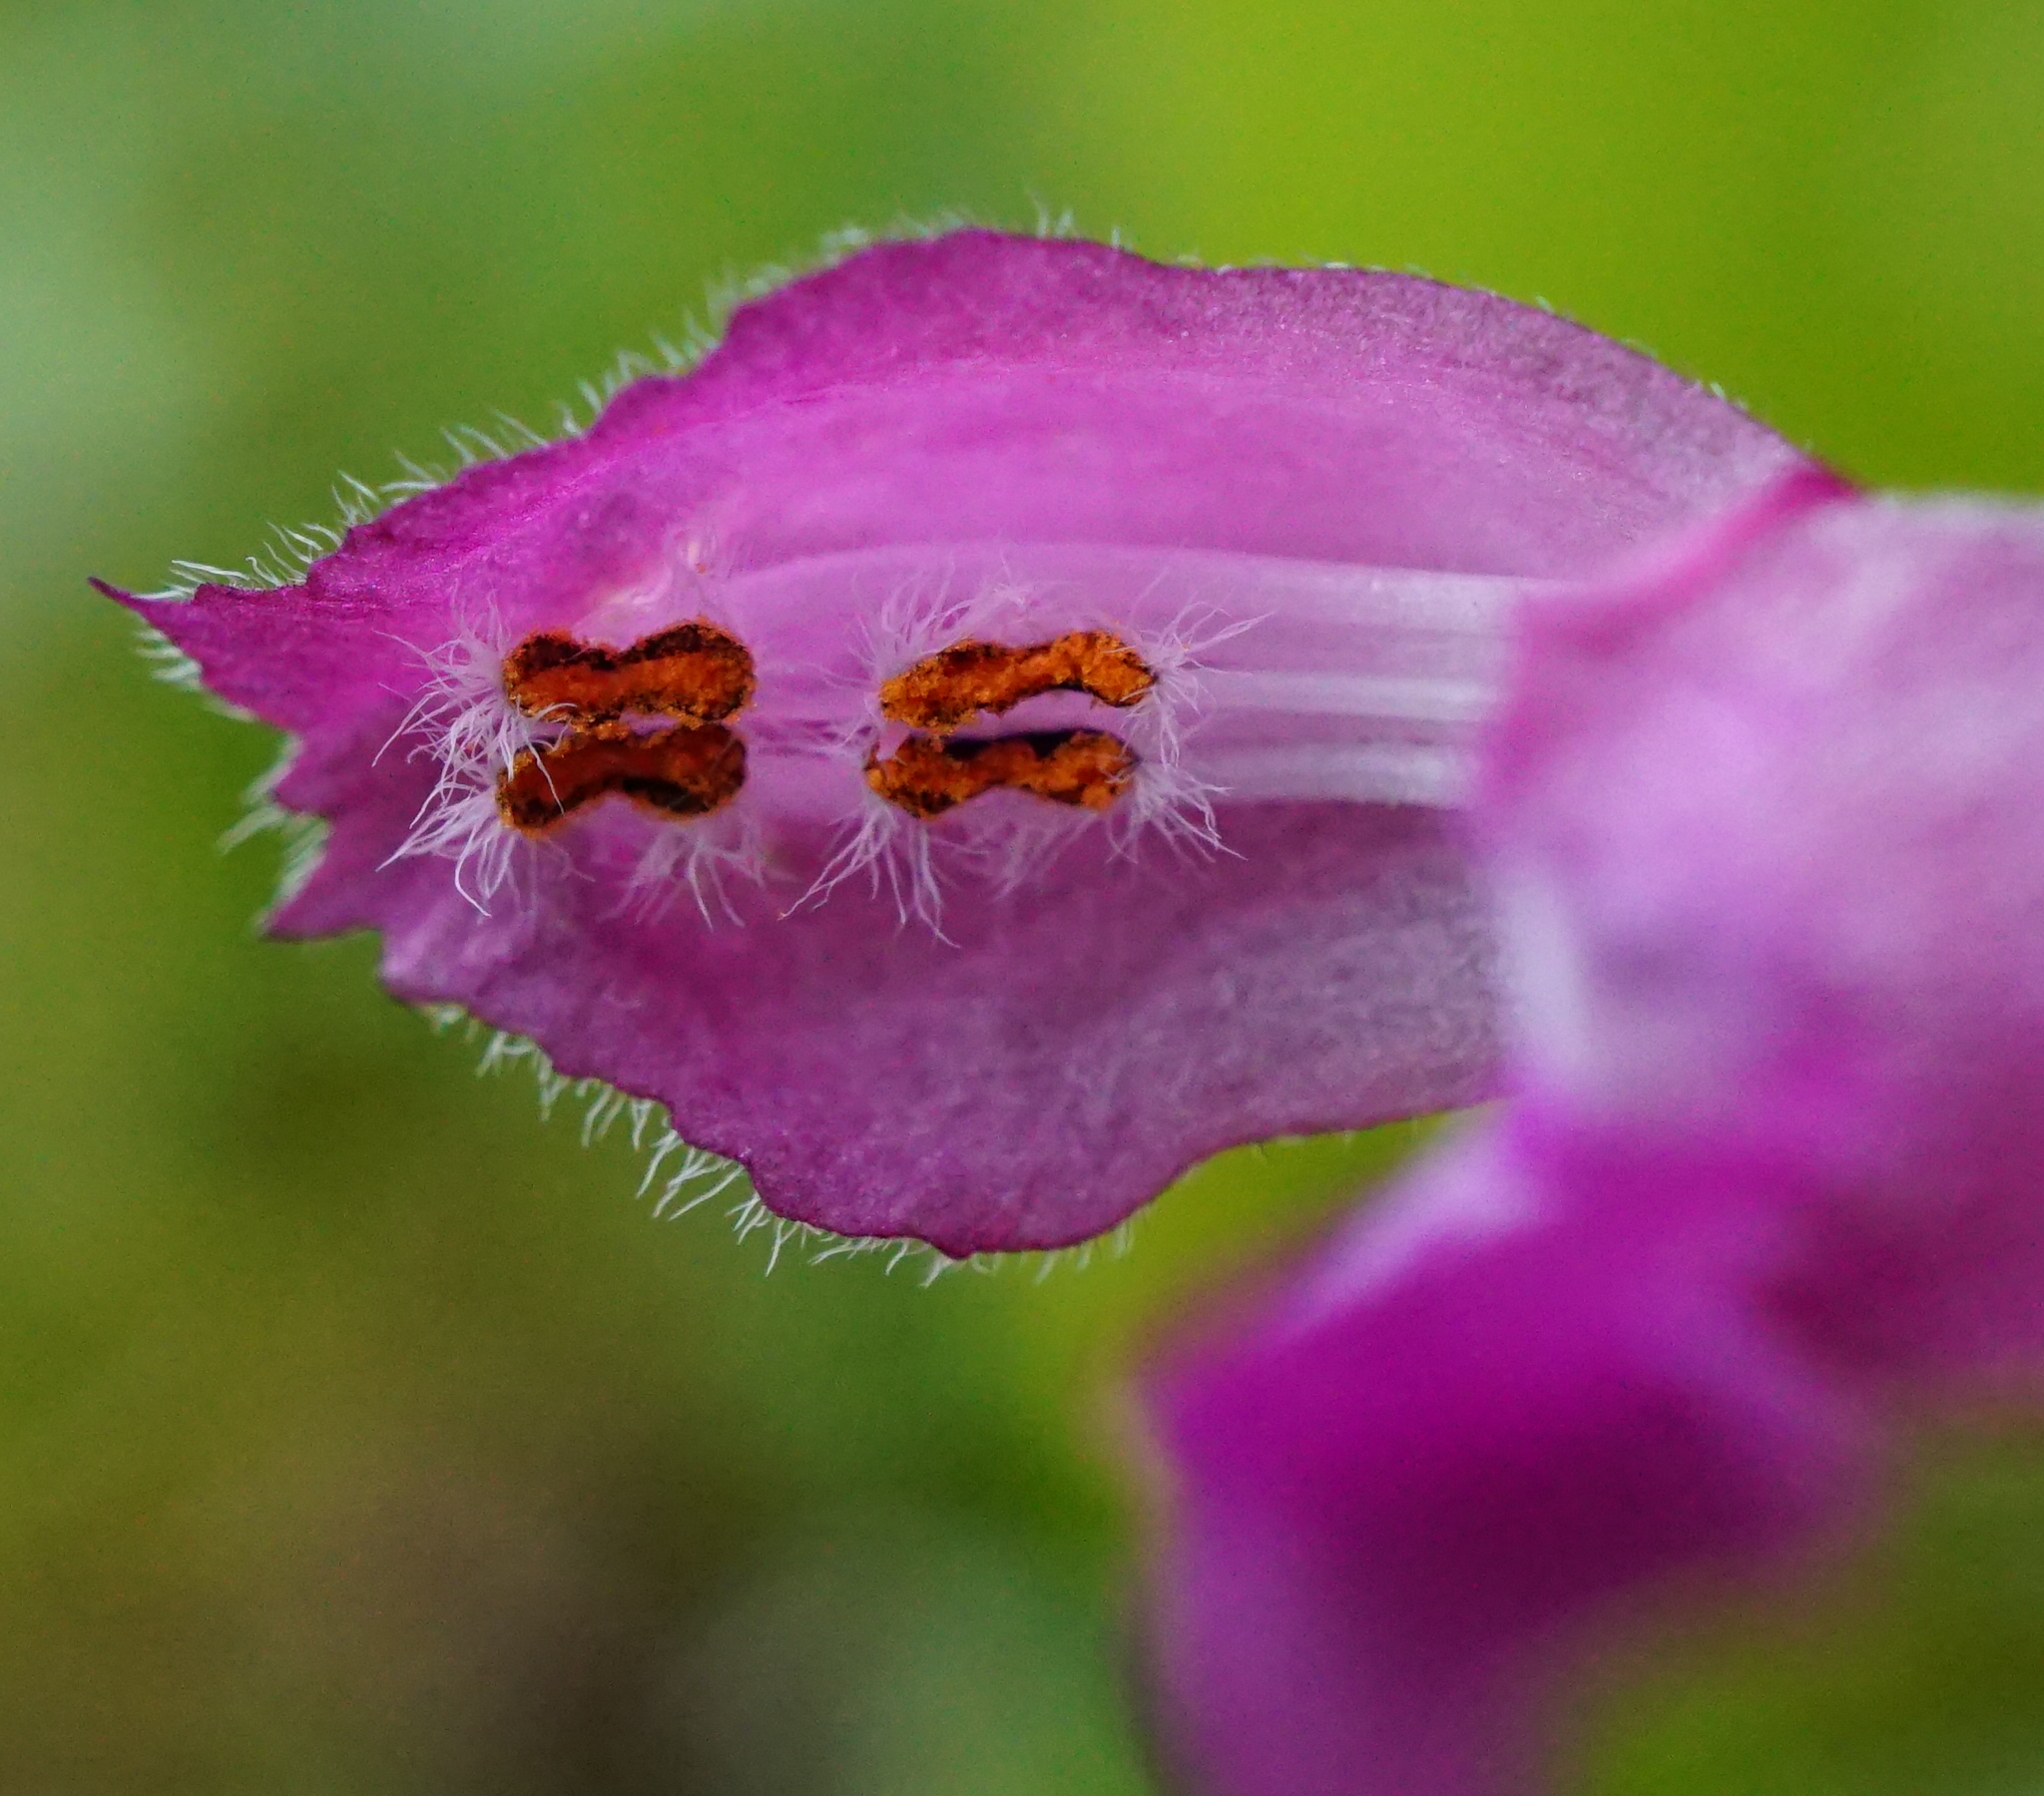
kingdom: Plantae
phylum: Tracheophyta
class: Magnoliopsida
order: Lamiales
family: Lamiaceae
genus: Lamium
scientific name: Lamium maculatum
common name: Spotted dead-nettle
